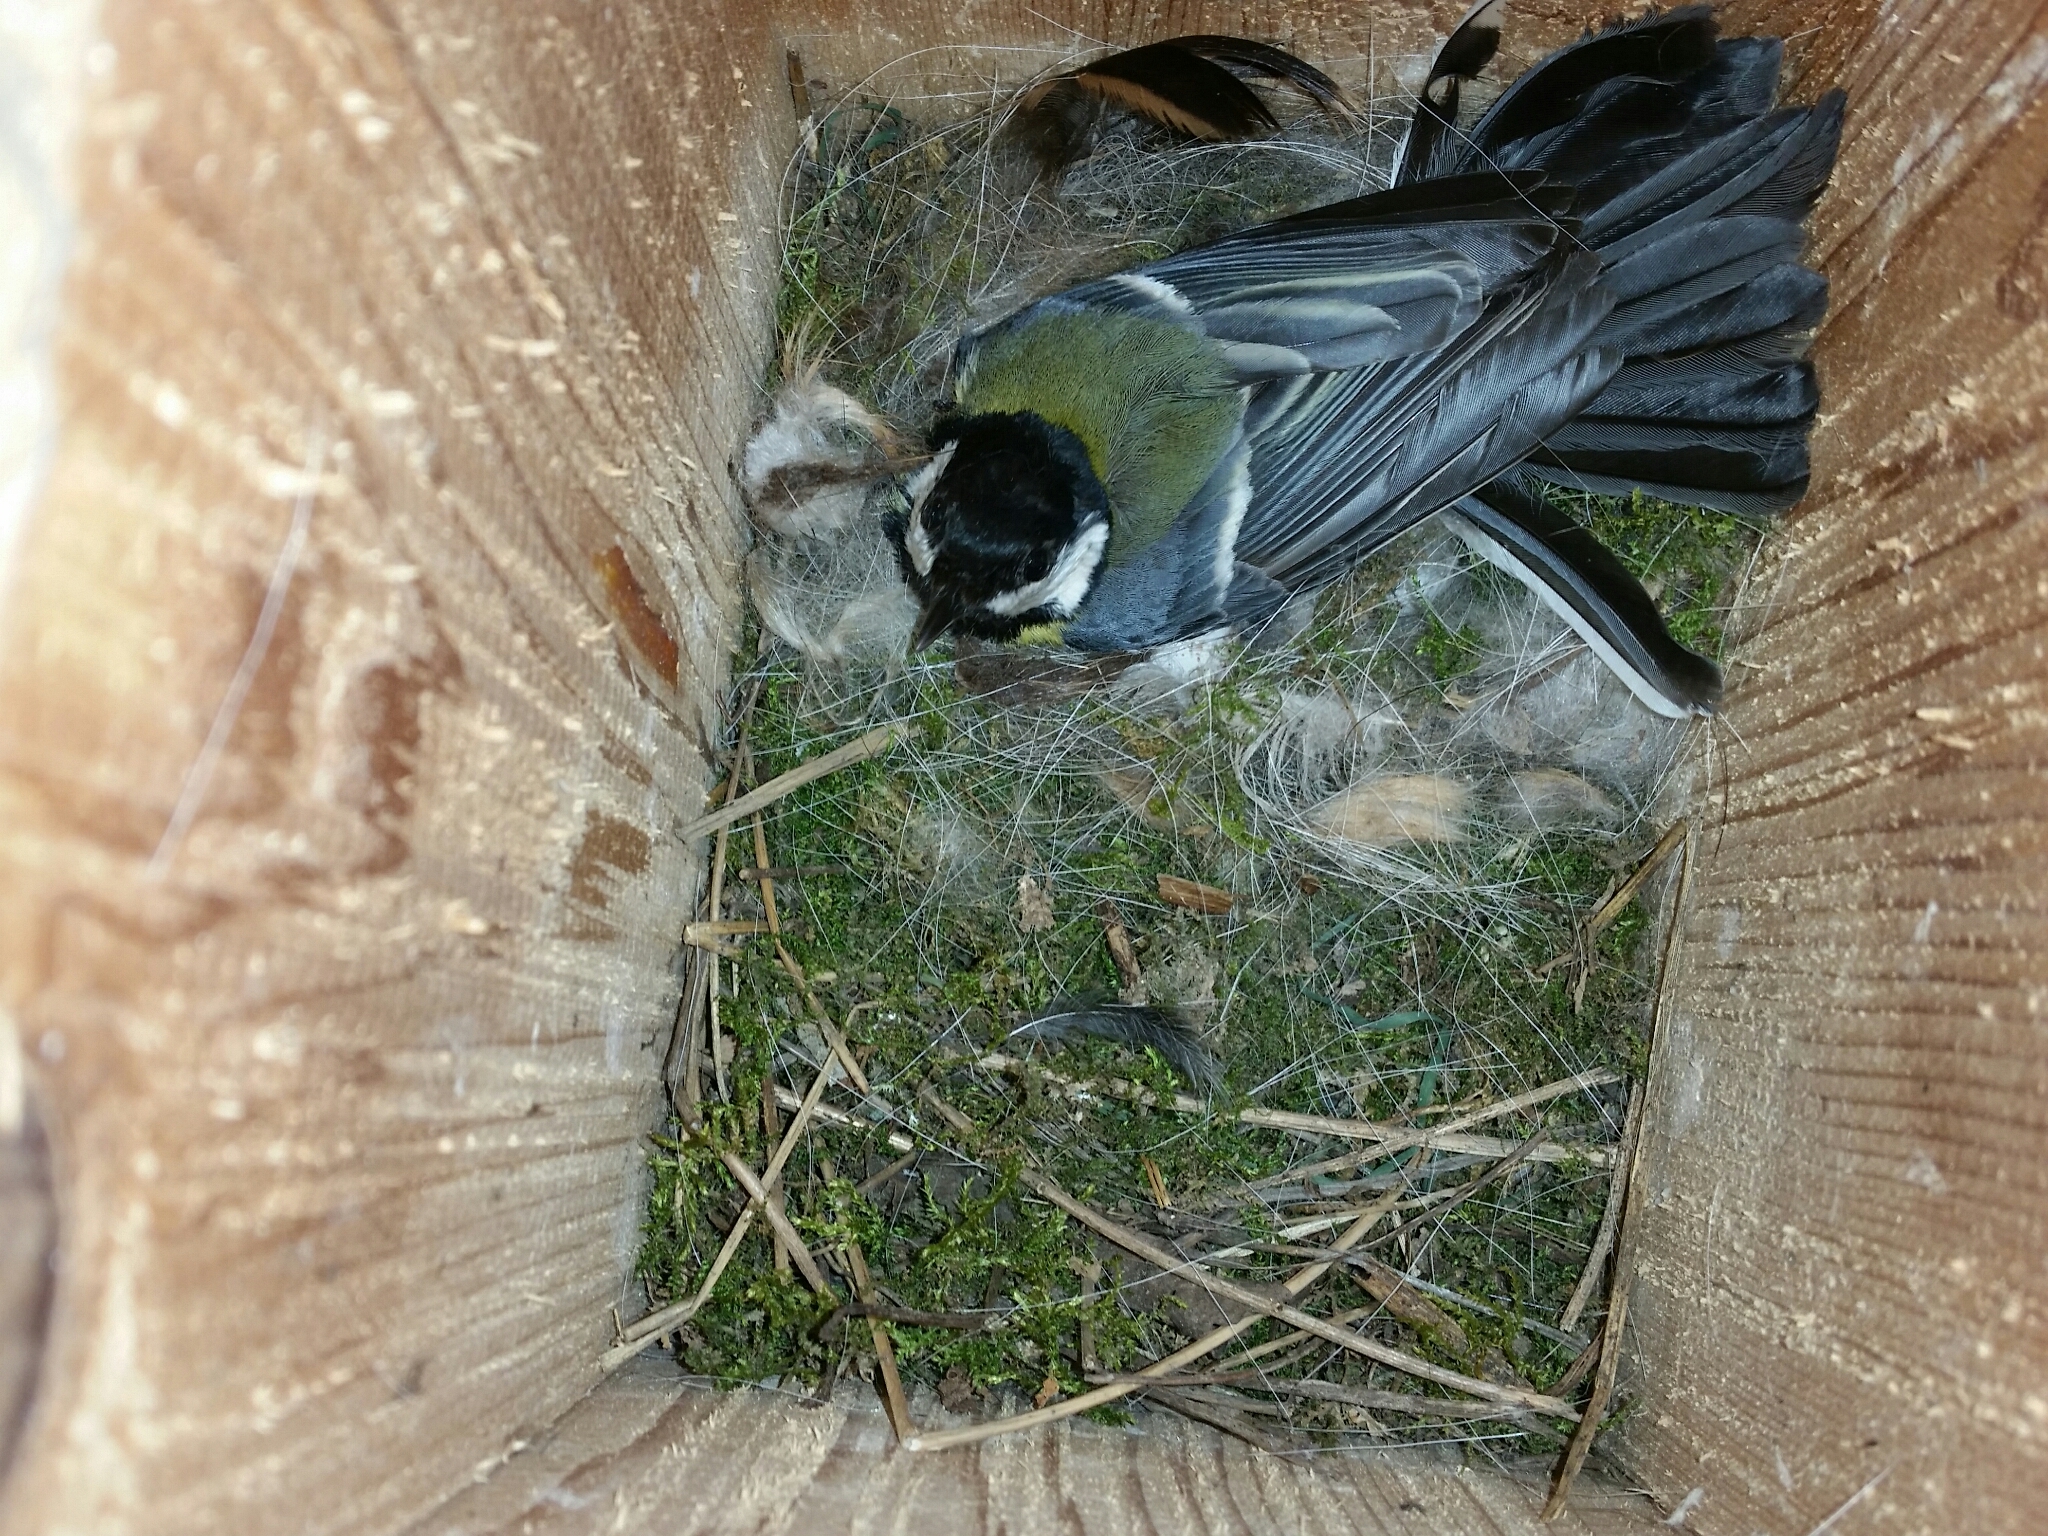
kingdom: Animalia
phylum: Chordata
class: Aves
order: Passeriformes
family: Paridae
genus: Parus
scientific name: Parus major
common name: Great tit
